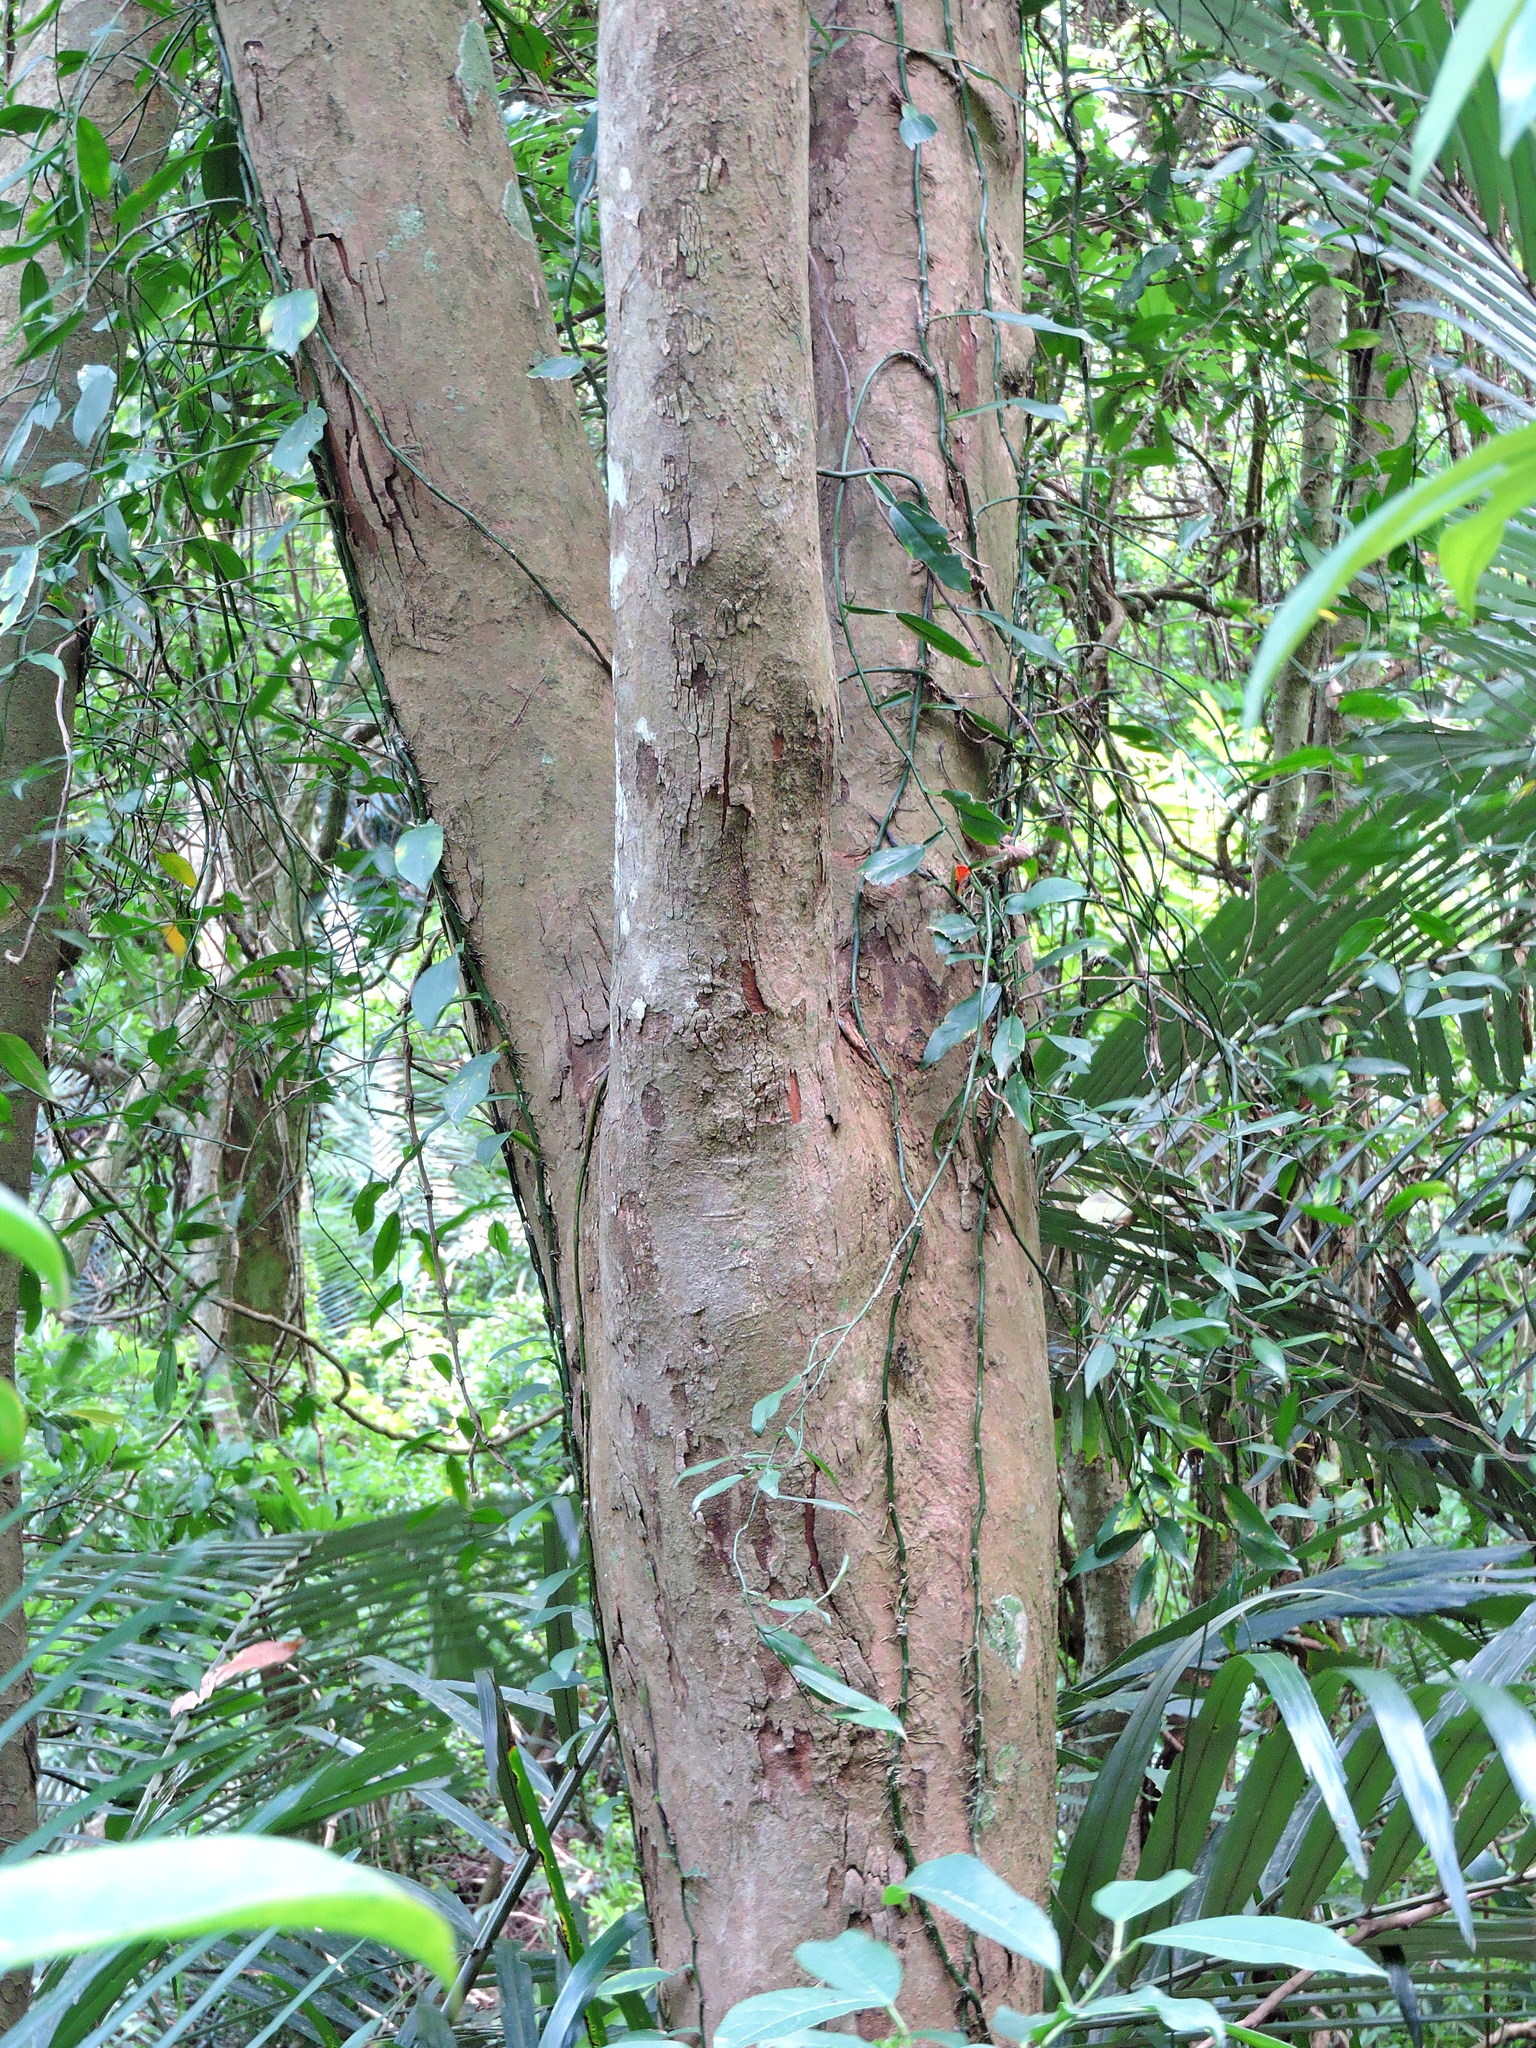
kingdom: Plantae
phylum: Tracheophyta
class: Magnoliopsida
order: Myrtales
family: Myrtaceae
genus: Syzygium
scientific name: Syzygium formosanum
